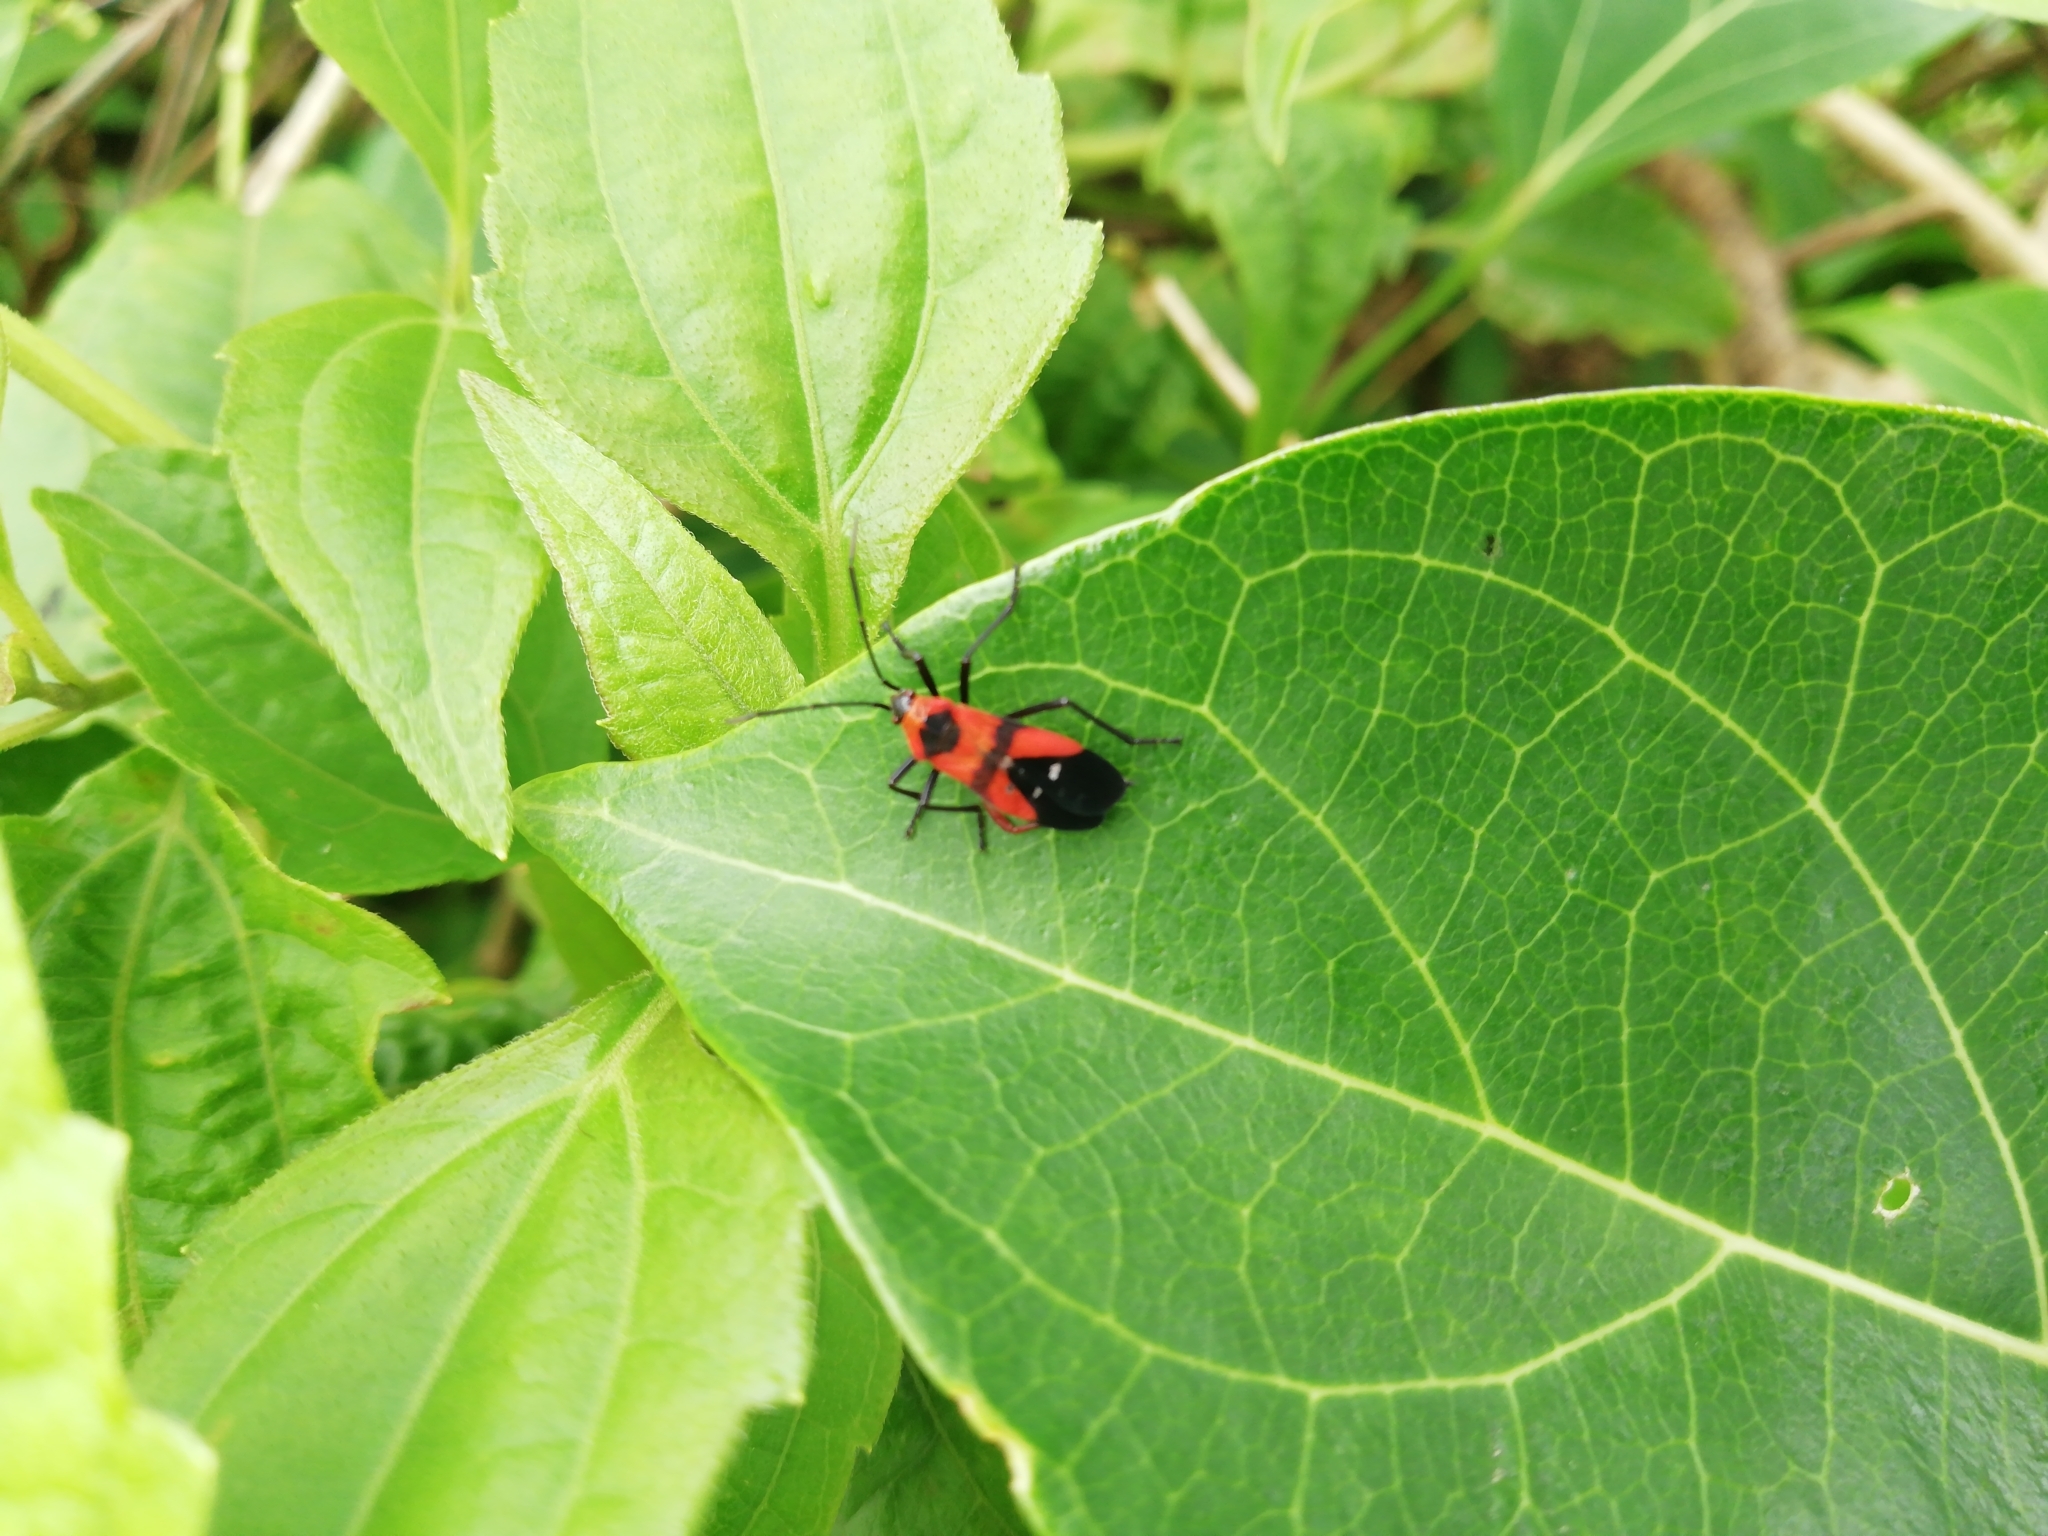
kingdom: Animalia
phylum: Arthropoda
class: Insecta
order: Hemiptera
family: Lygaeidae
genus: Oncopeltus
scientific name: Oncopeltus nigriceps
